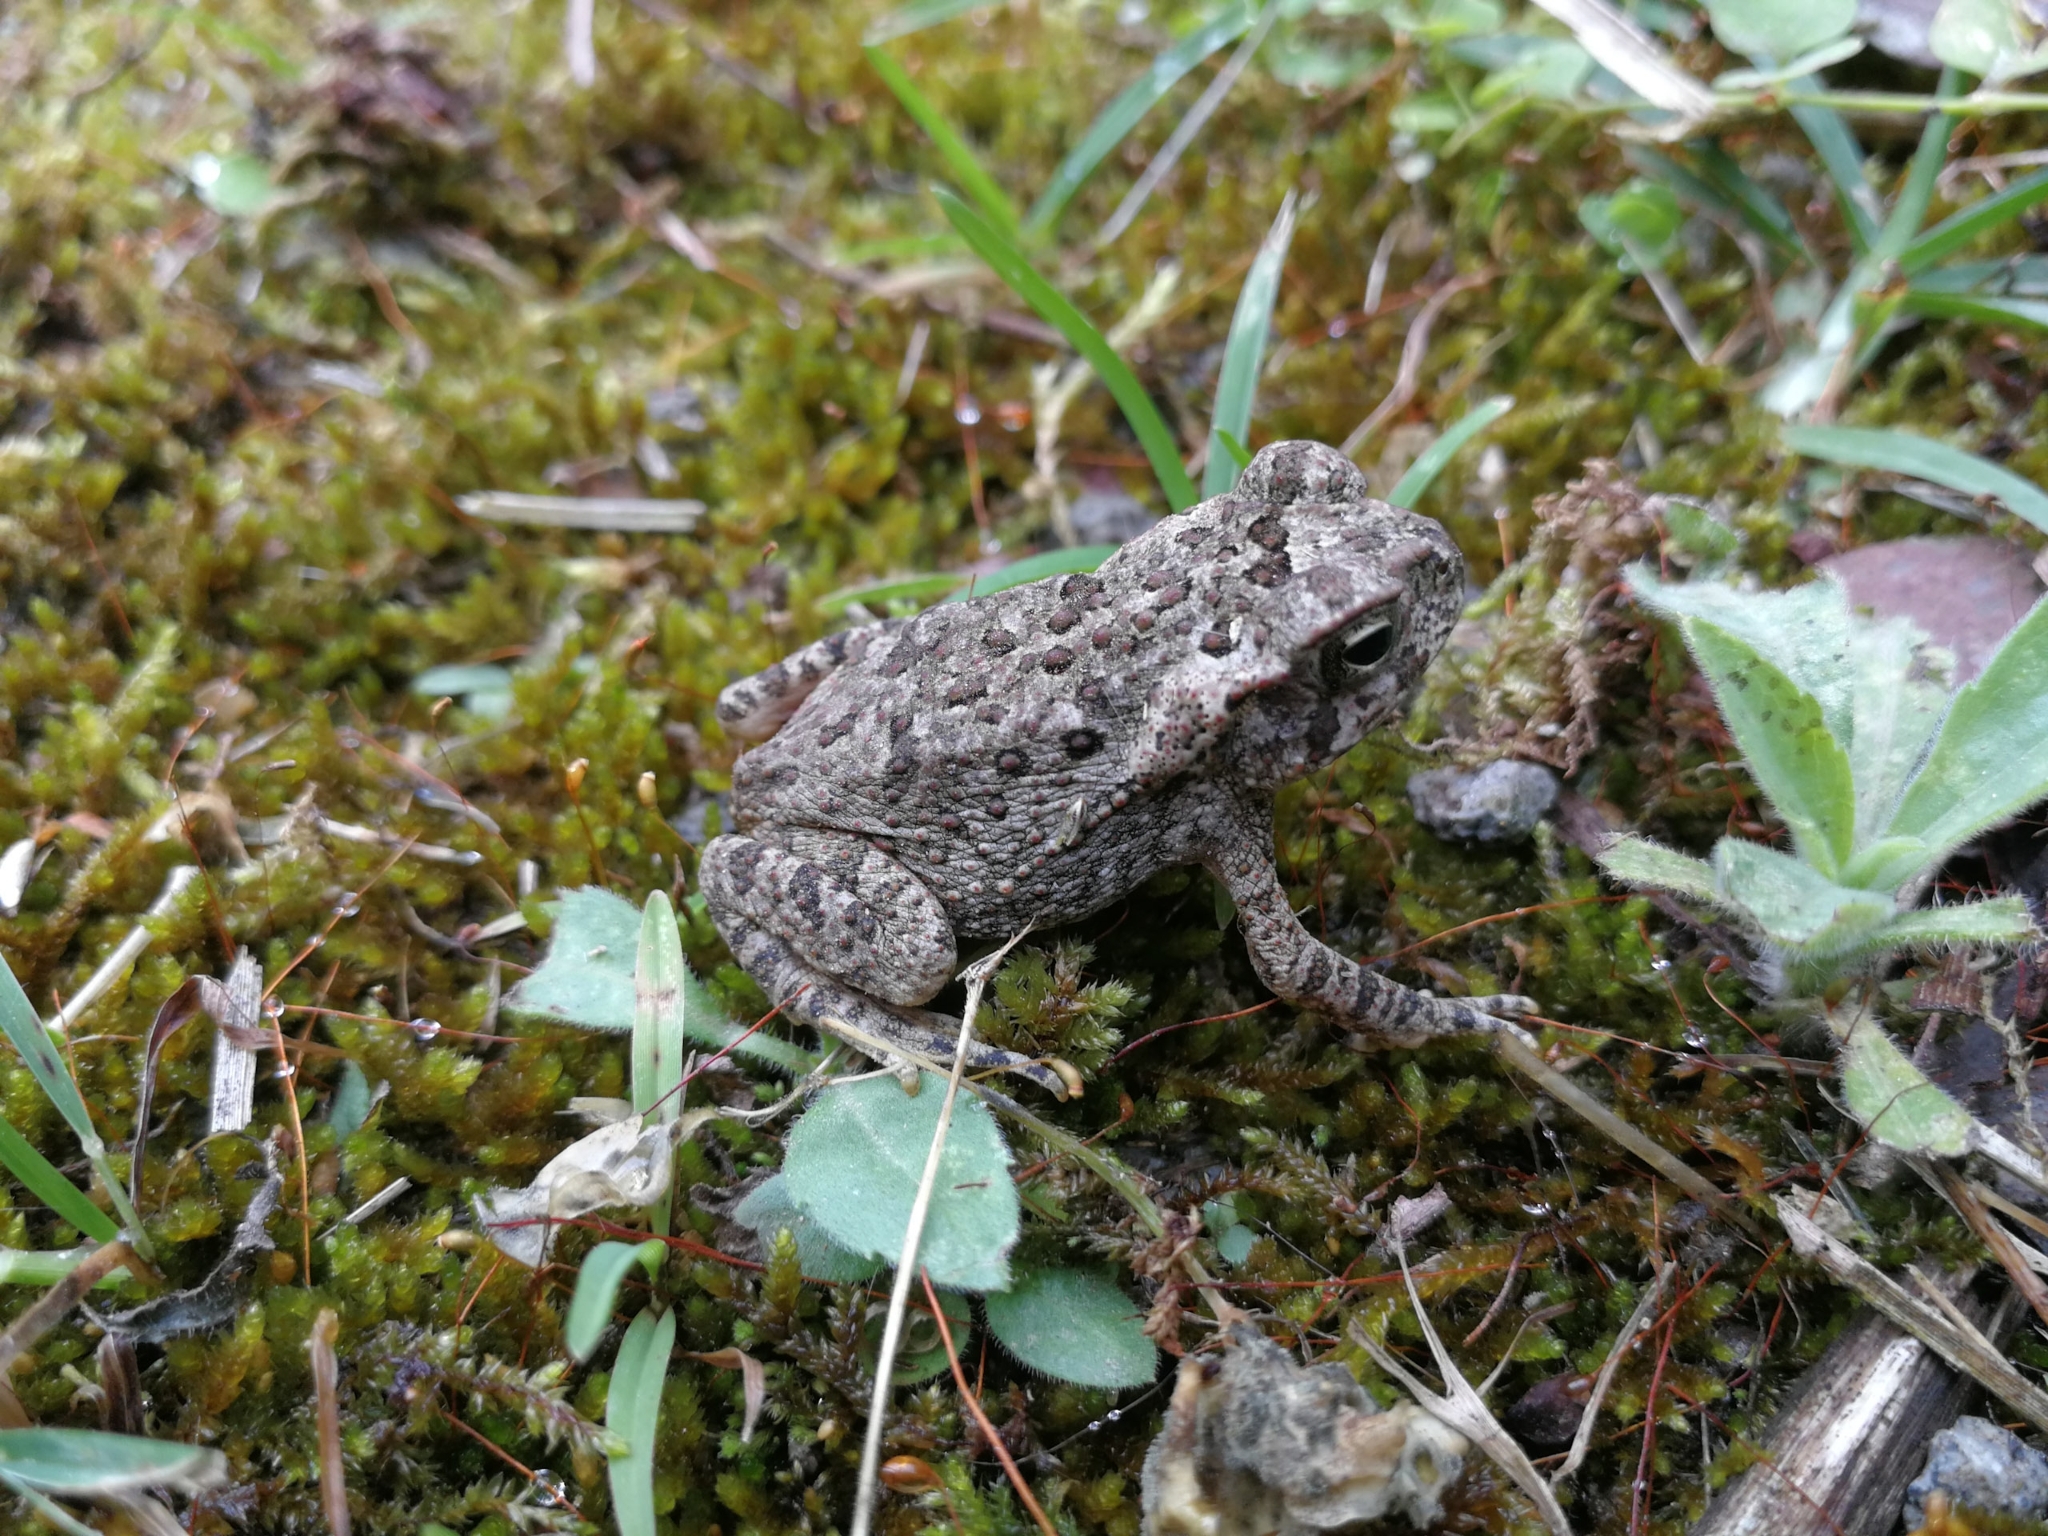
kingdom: Animalia
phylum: Chordata
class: Amphibia
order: Anura
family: Bufonidae
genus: Rhinella
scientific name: Rhinella
